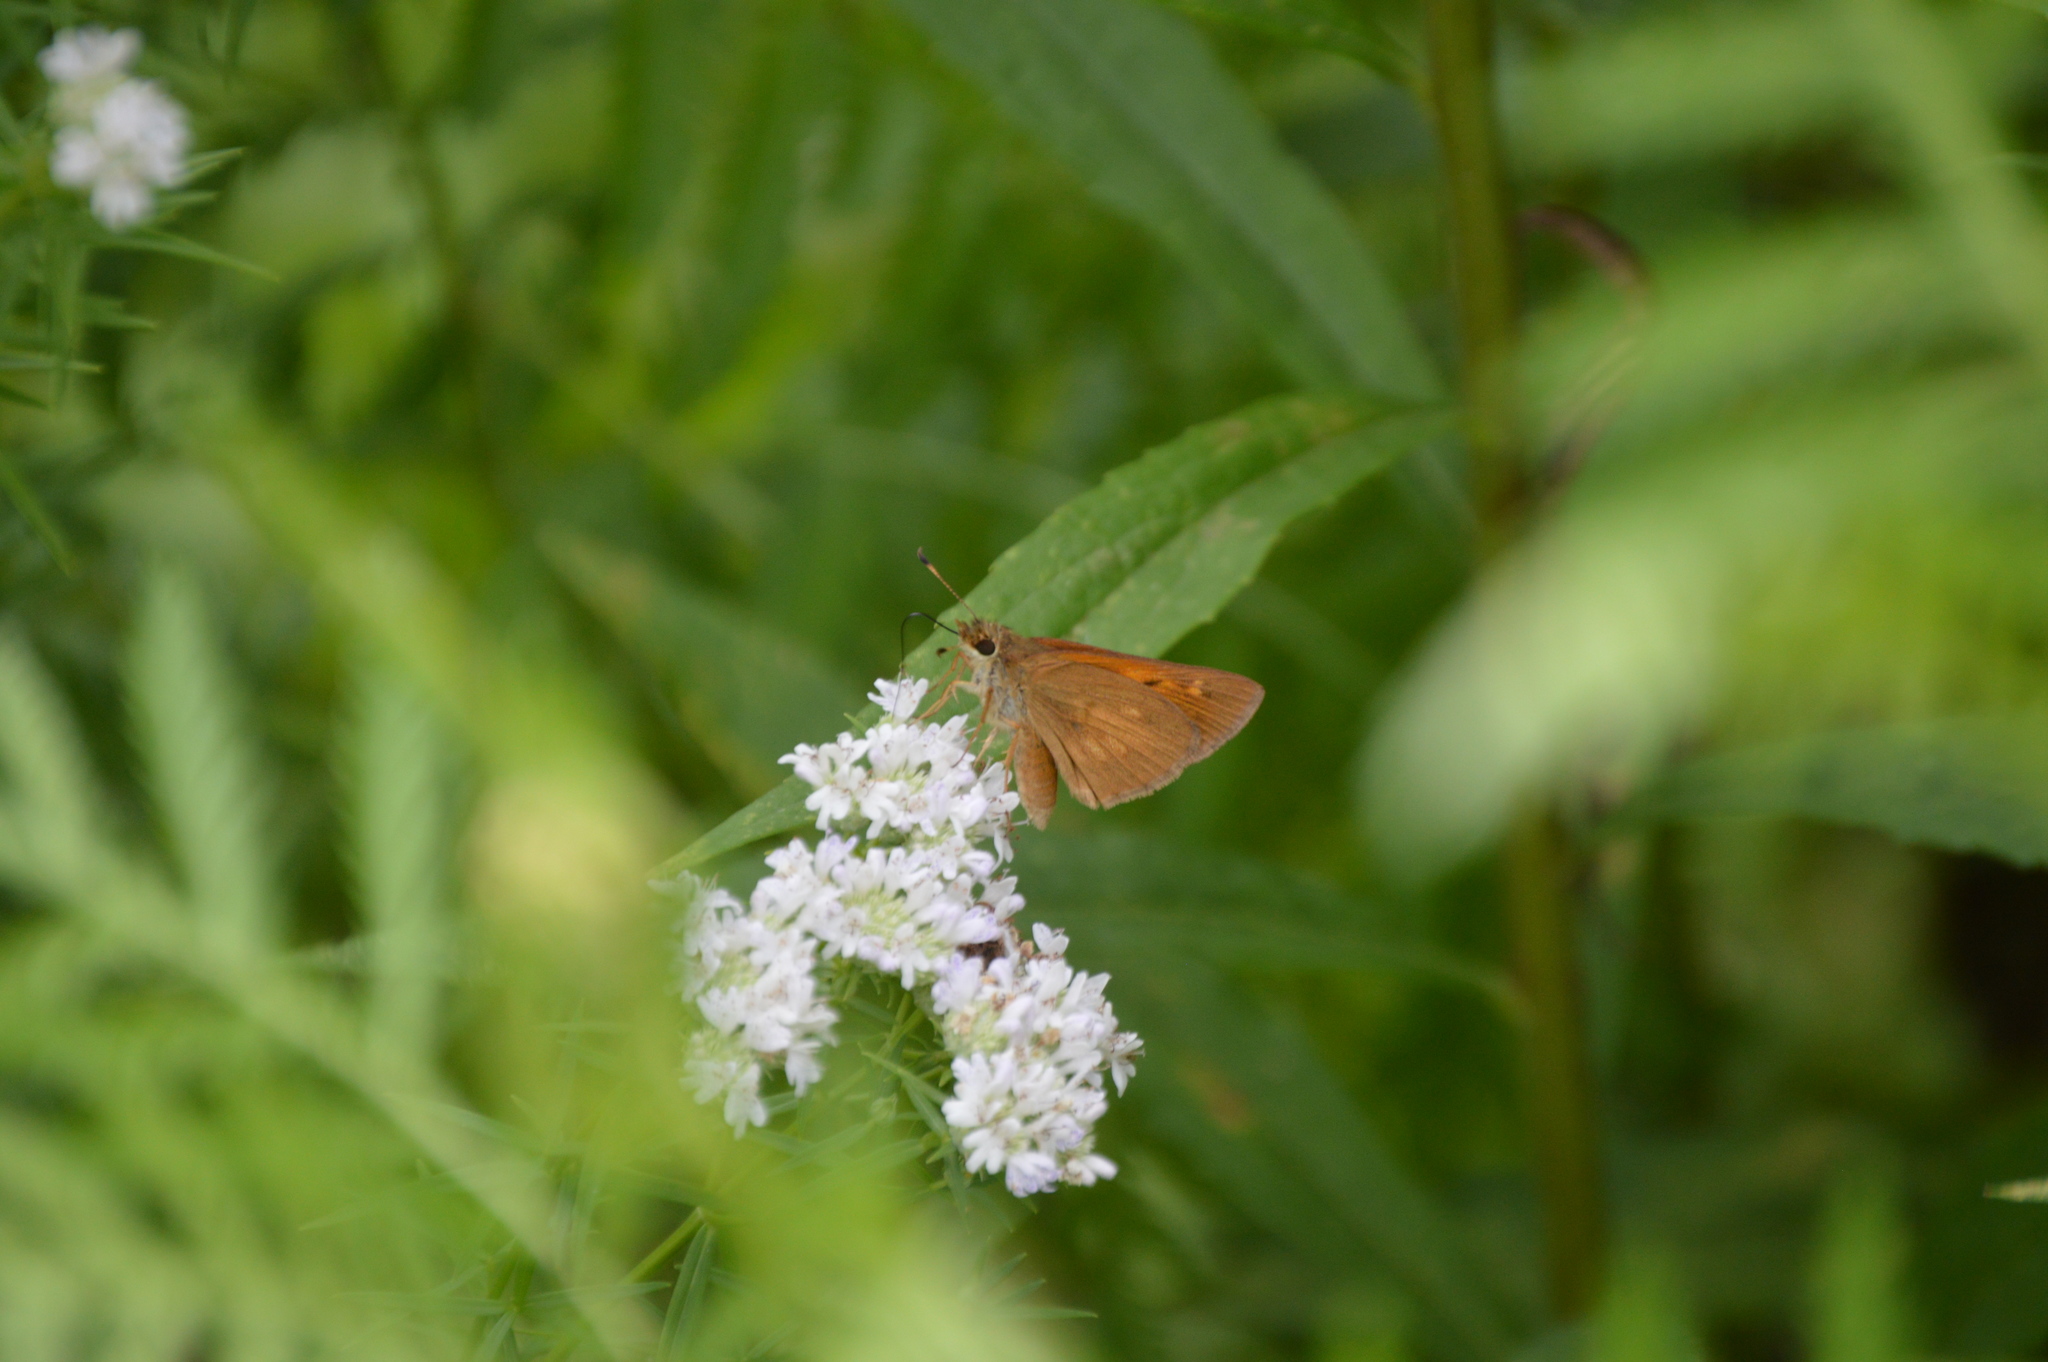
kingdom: Animalia
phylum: Arthropoda
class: Insecta
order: Lepidoptera
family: Hesperiidae
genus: Poanes
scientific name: Poanes viator
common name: Broad-winged skipper
